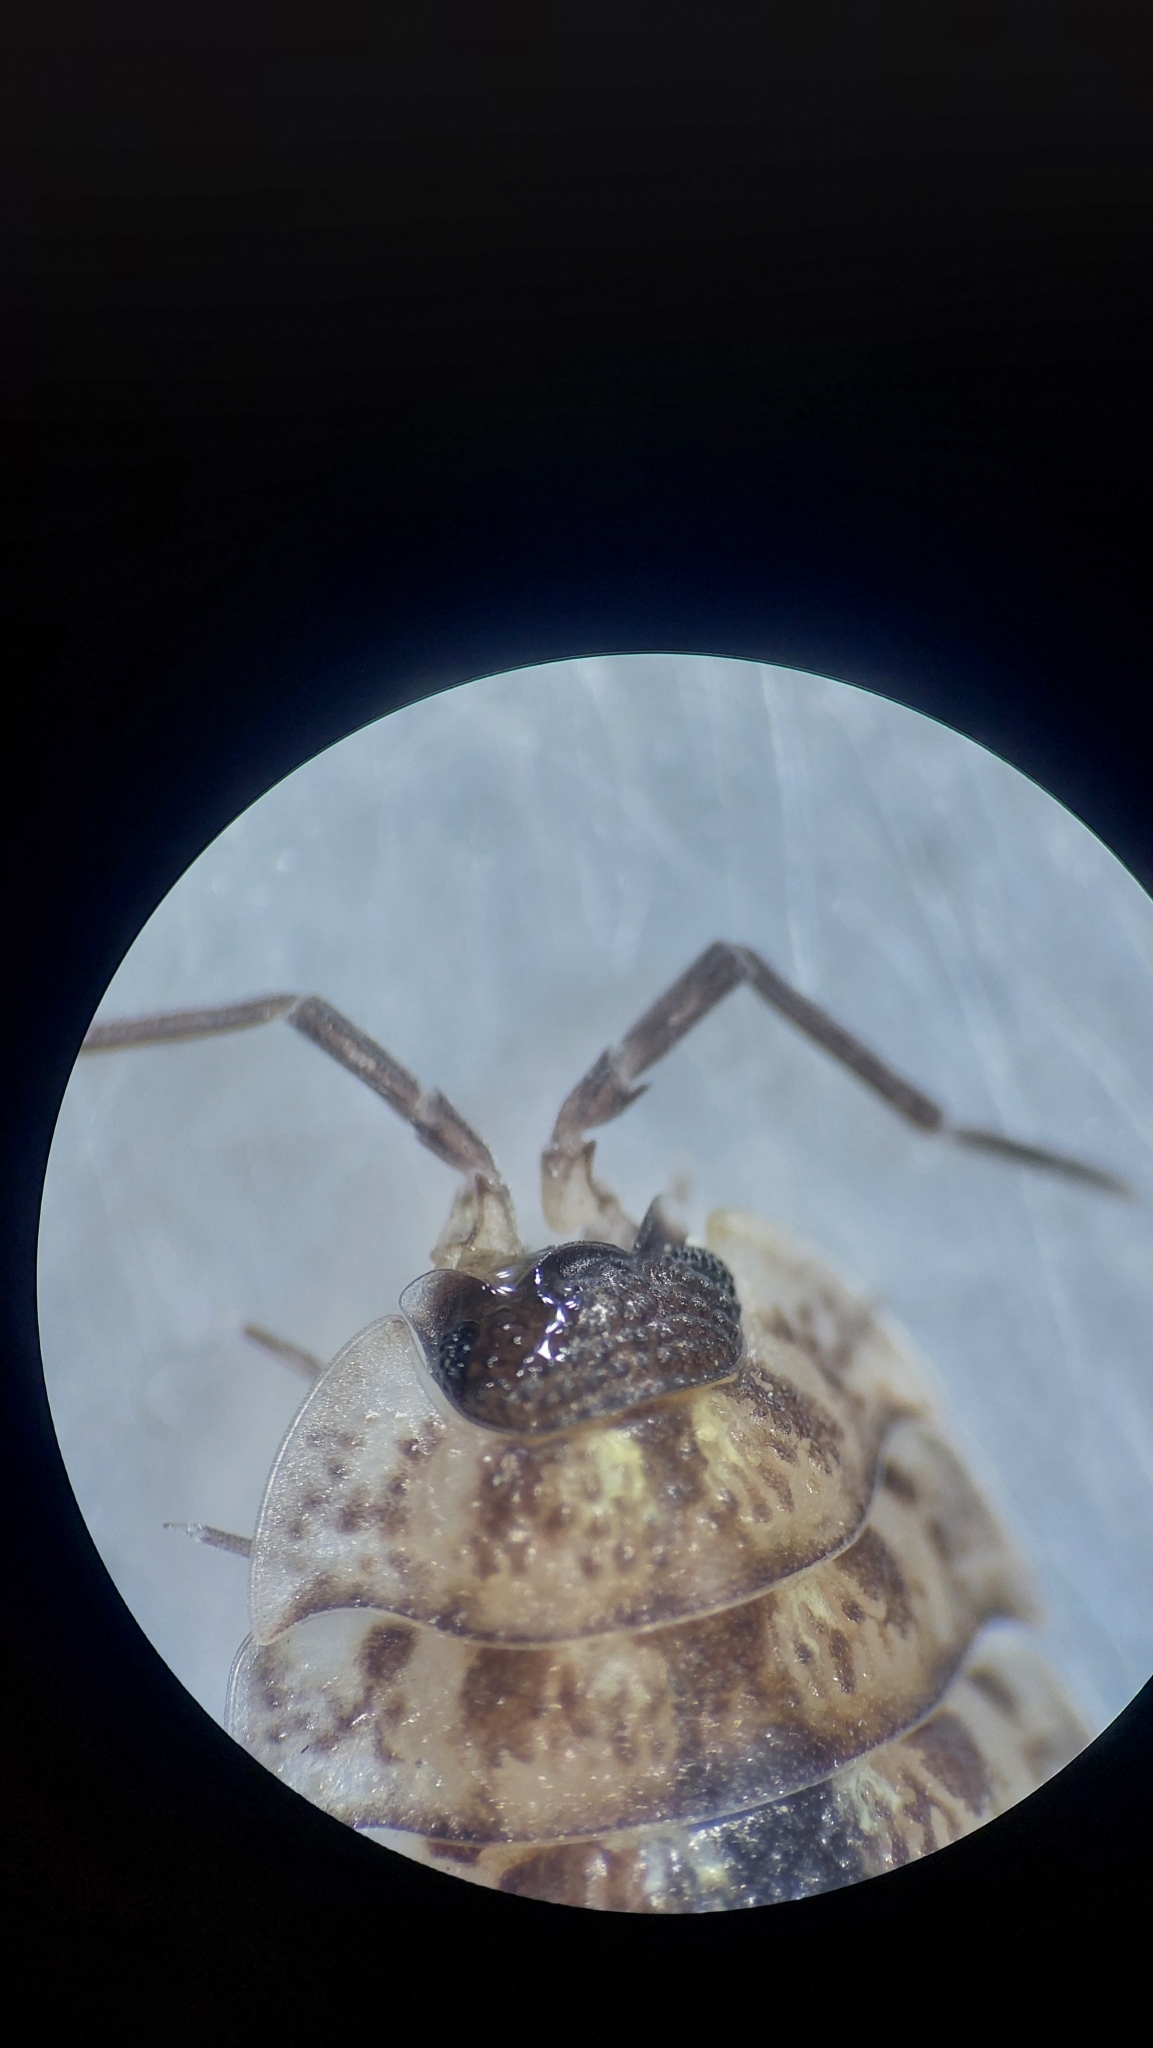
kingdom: Animalia
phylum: Arthropoda
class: Malacostraca
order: Isopoda
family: Porcellionidae
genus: Porcellio
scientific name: Porcellio spinicornis
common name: Painted woodlouse
